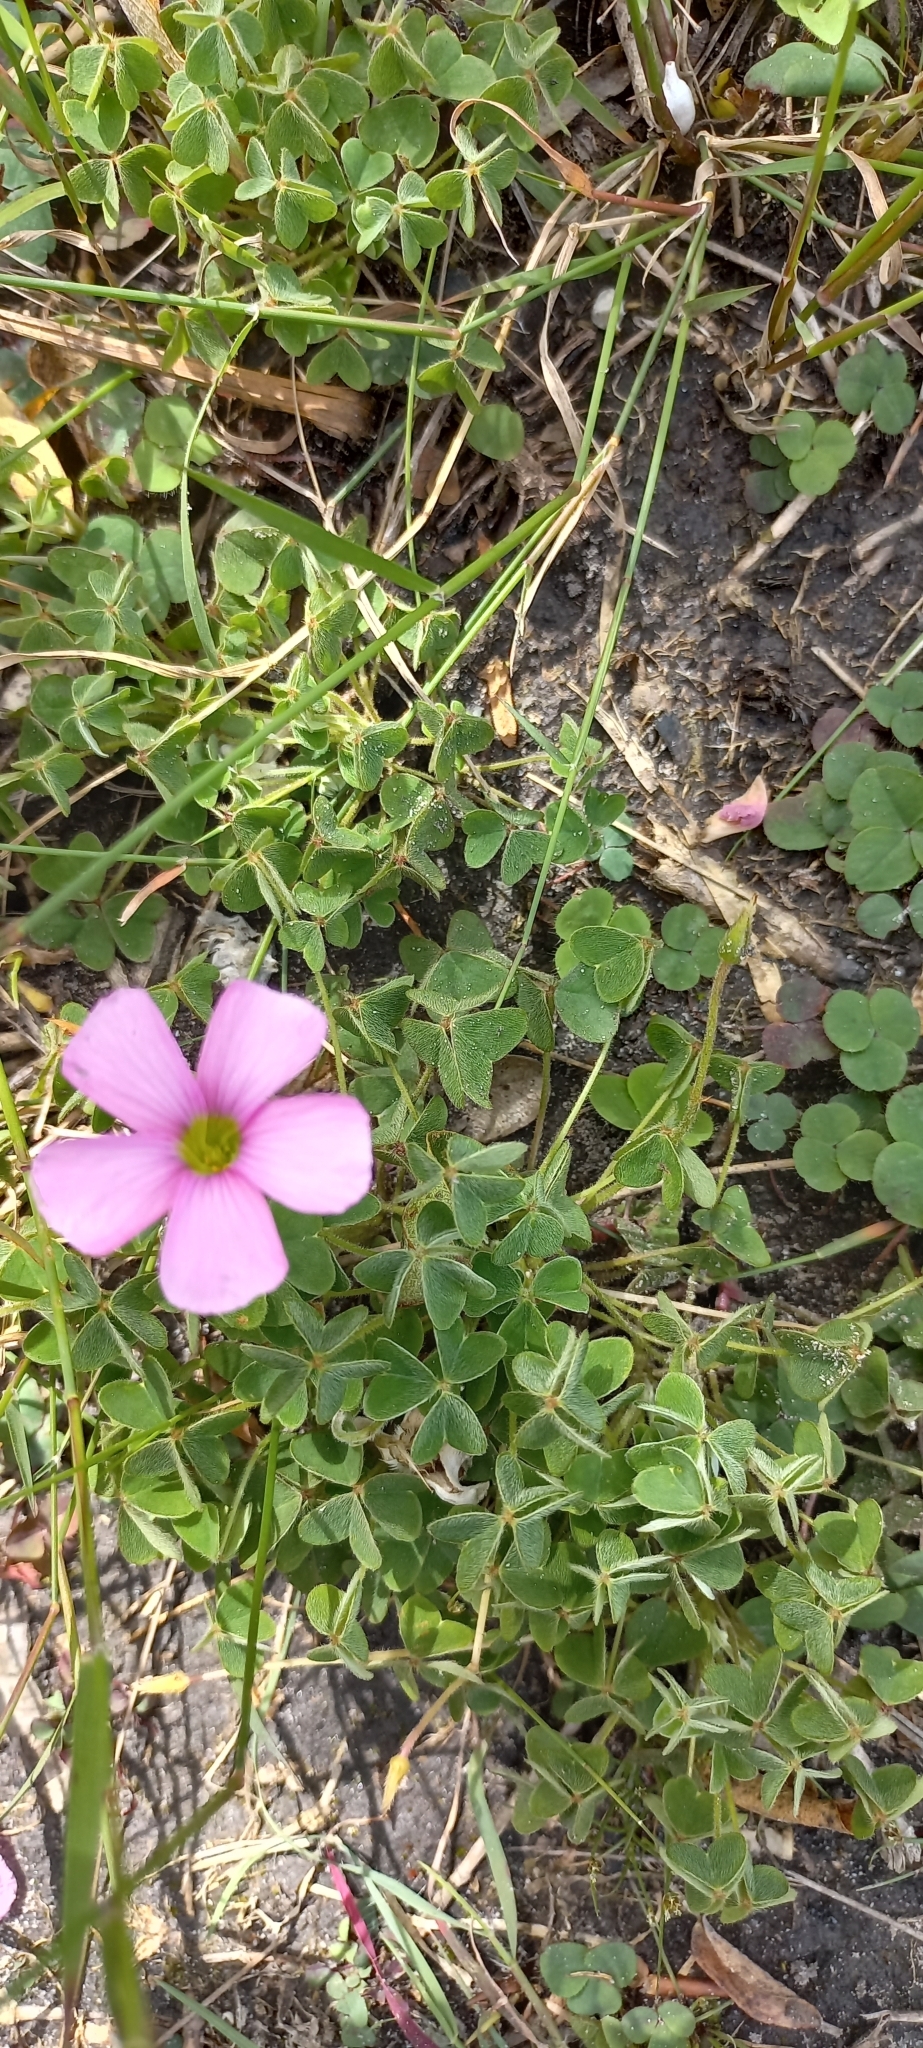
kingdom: Plantae
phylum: Tracheophyta
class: Magnoliopsida
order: Oxalidales
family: Oxalidaceae
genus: Oxalis
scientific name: Oxalis lanata
